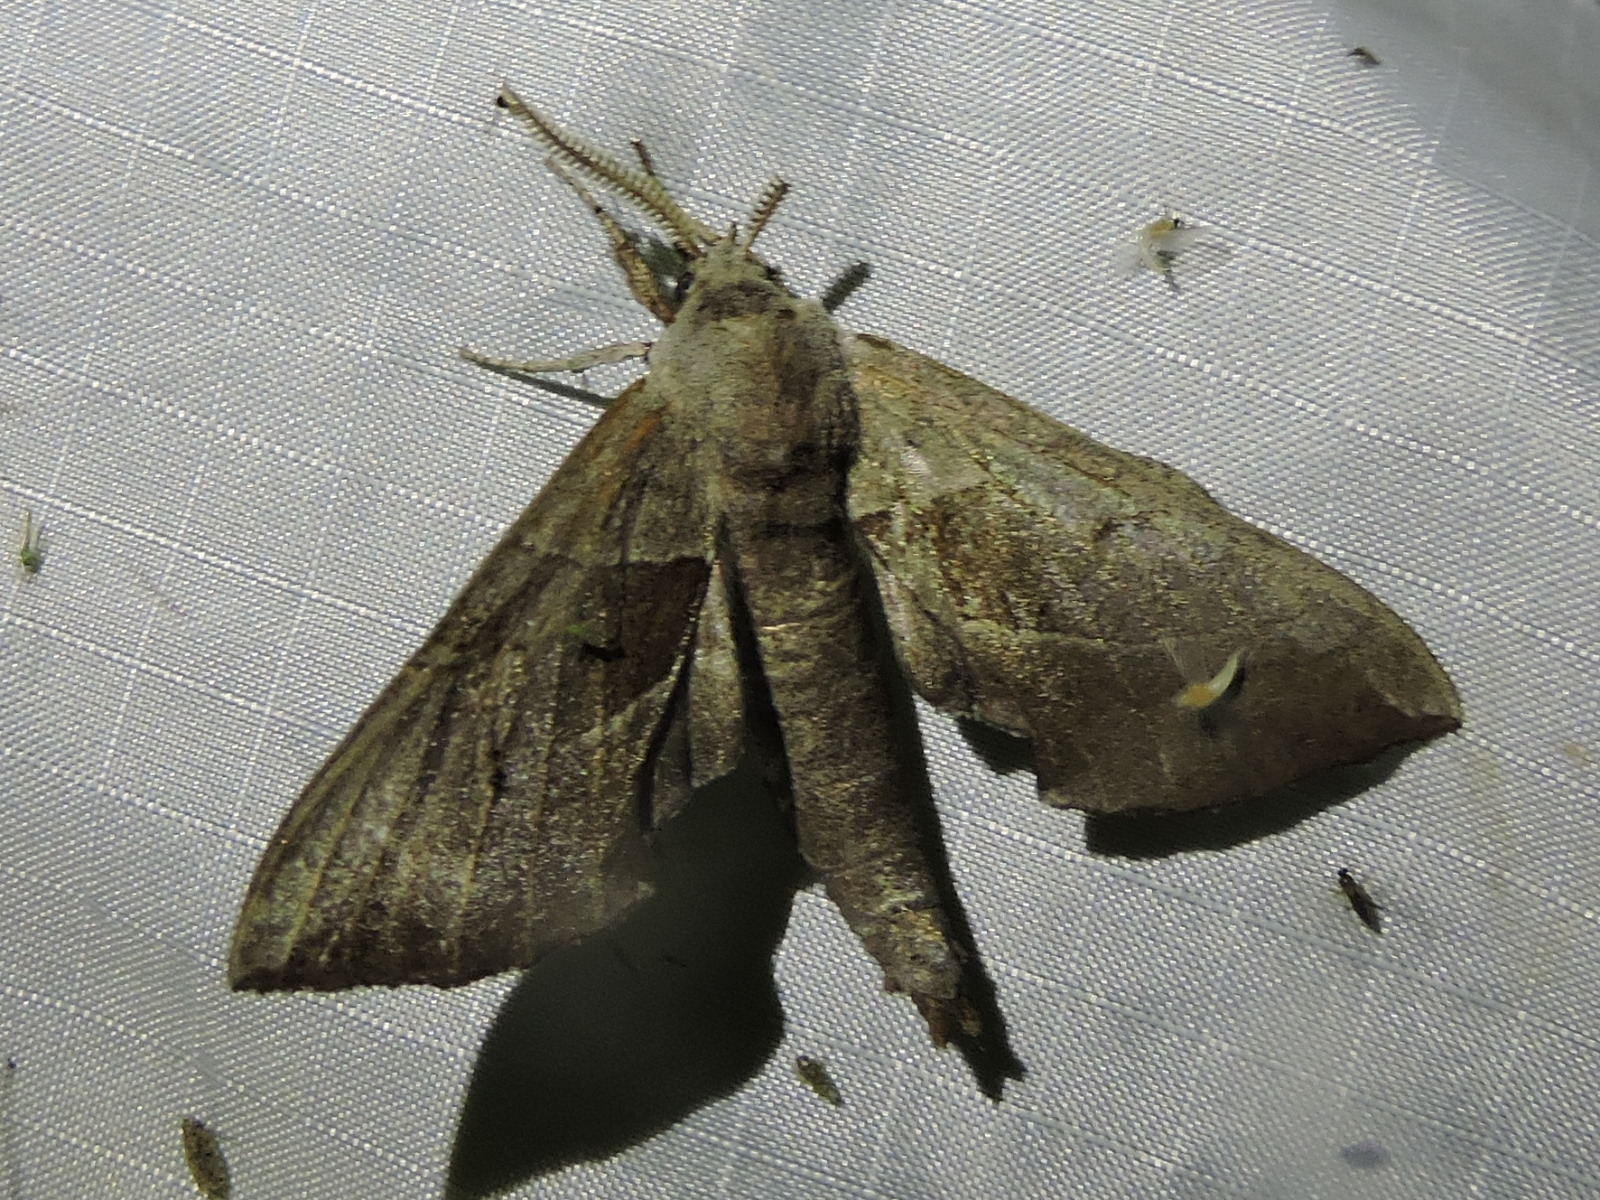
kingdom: Animalia
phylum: Arthropoda
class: Insecta
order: Lepidoptera
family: Sphingidae
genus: Amorpha
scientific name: Amorpha juglandis
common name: Walnut sphinx
